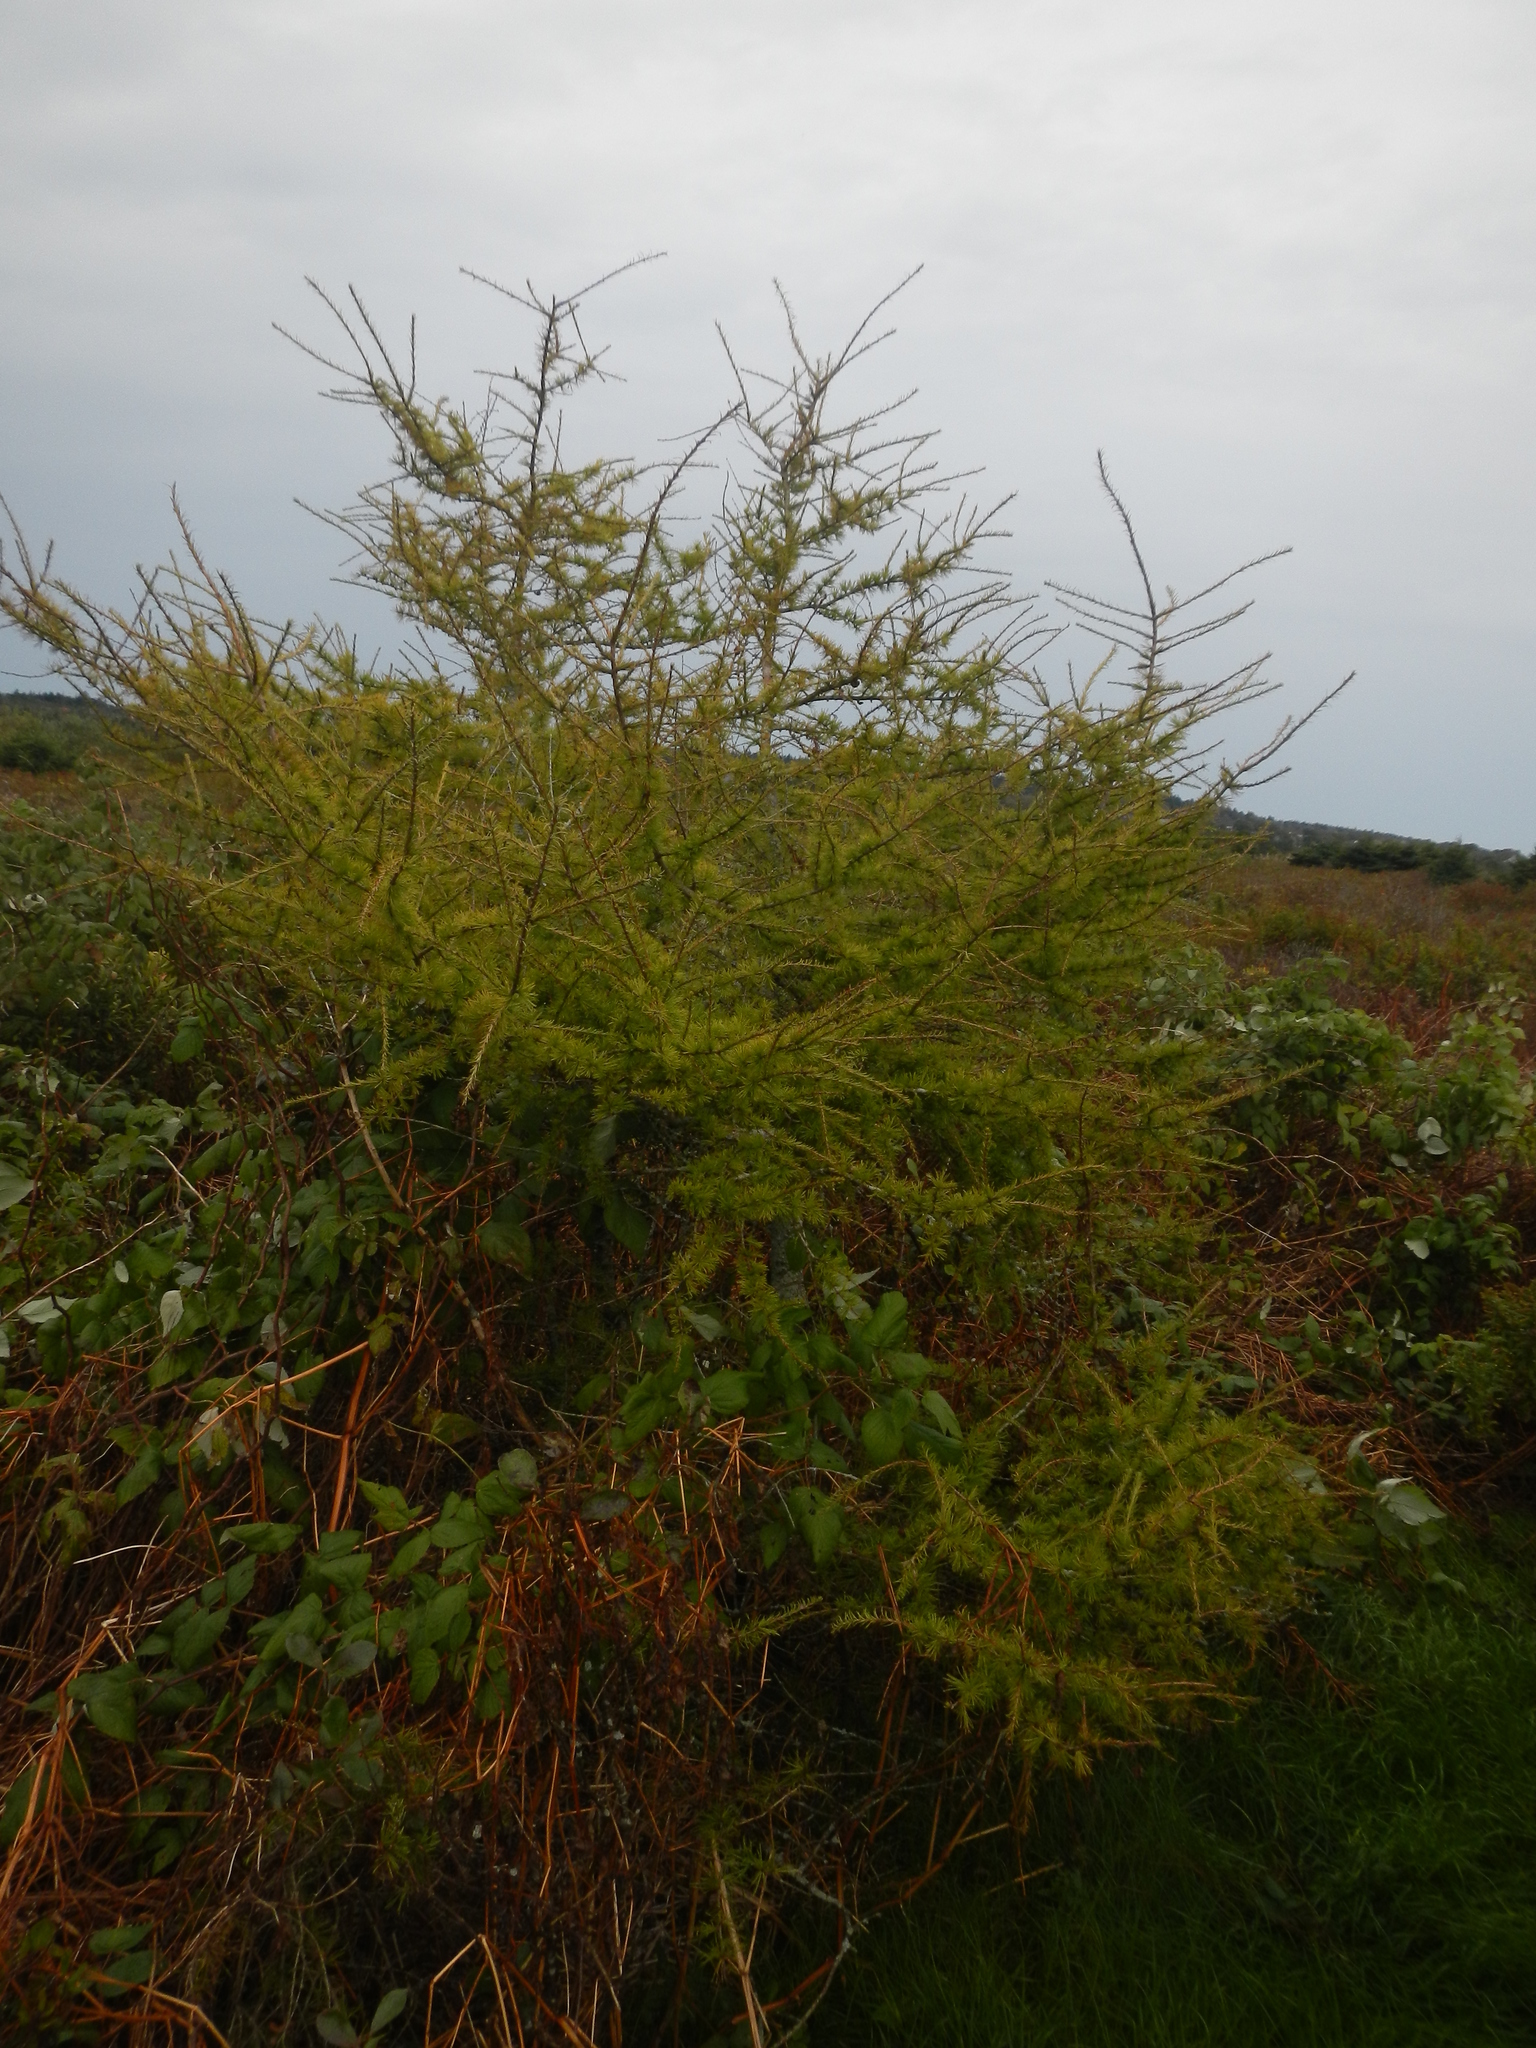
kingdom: Plantae
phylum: Tracheophyta
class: Pinopsida
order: Pinales
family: Pinaceae
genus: Larix
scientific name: Larix laricina
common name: American larch
